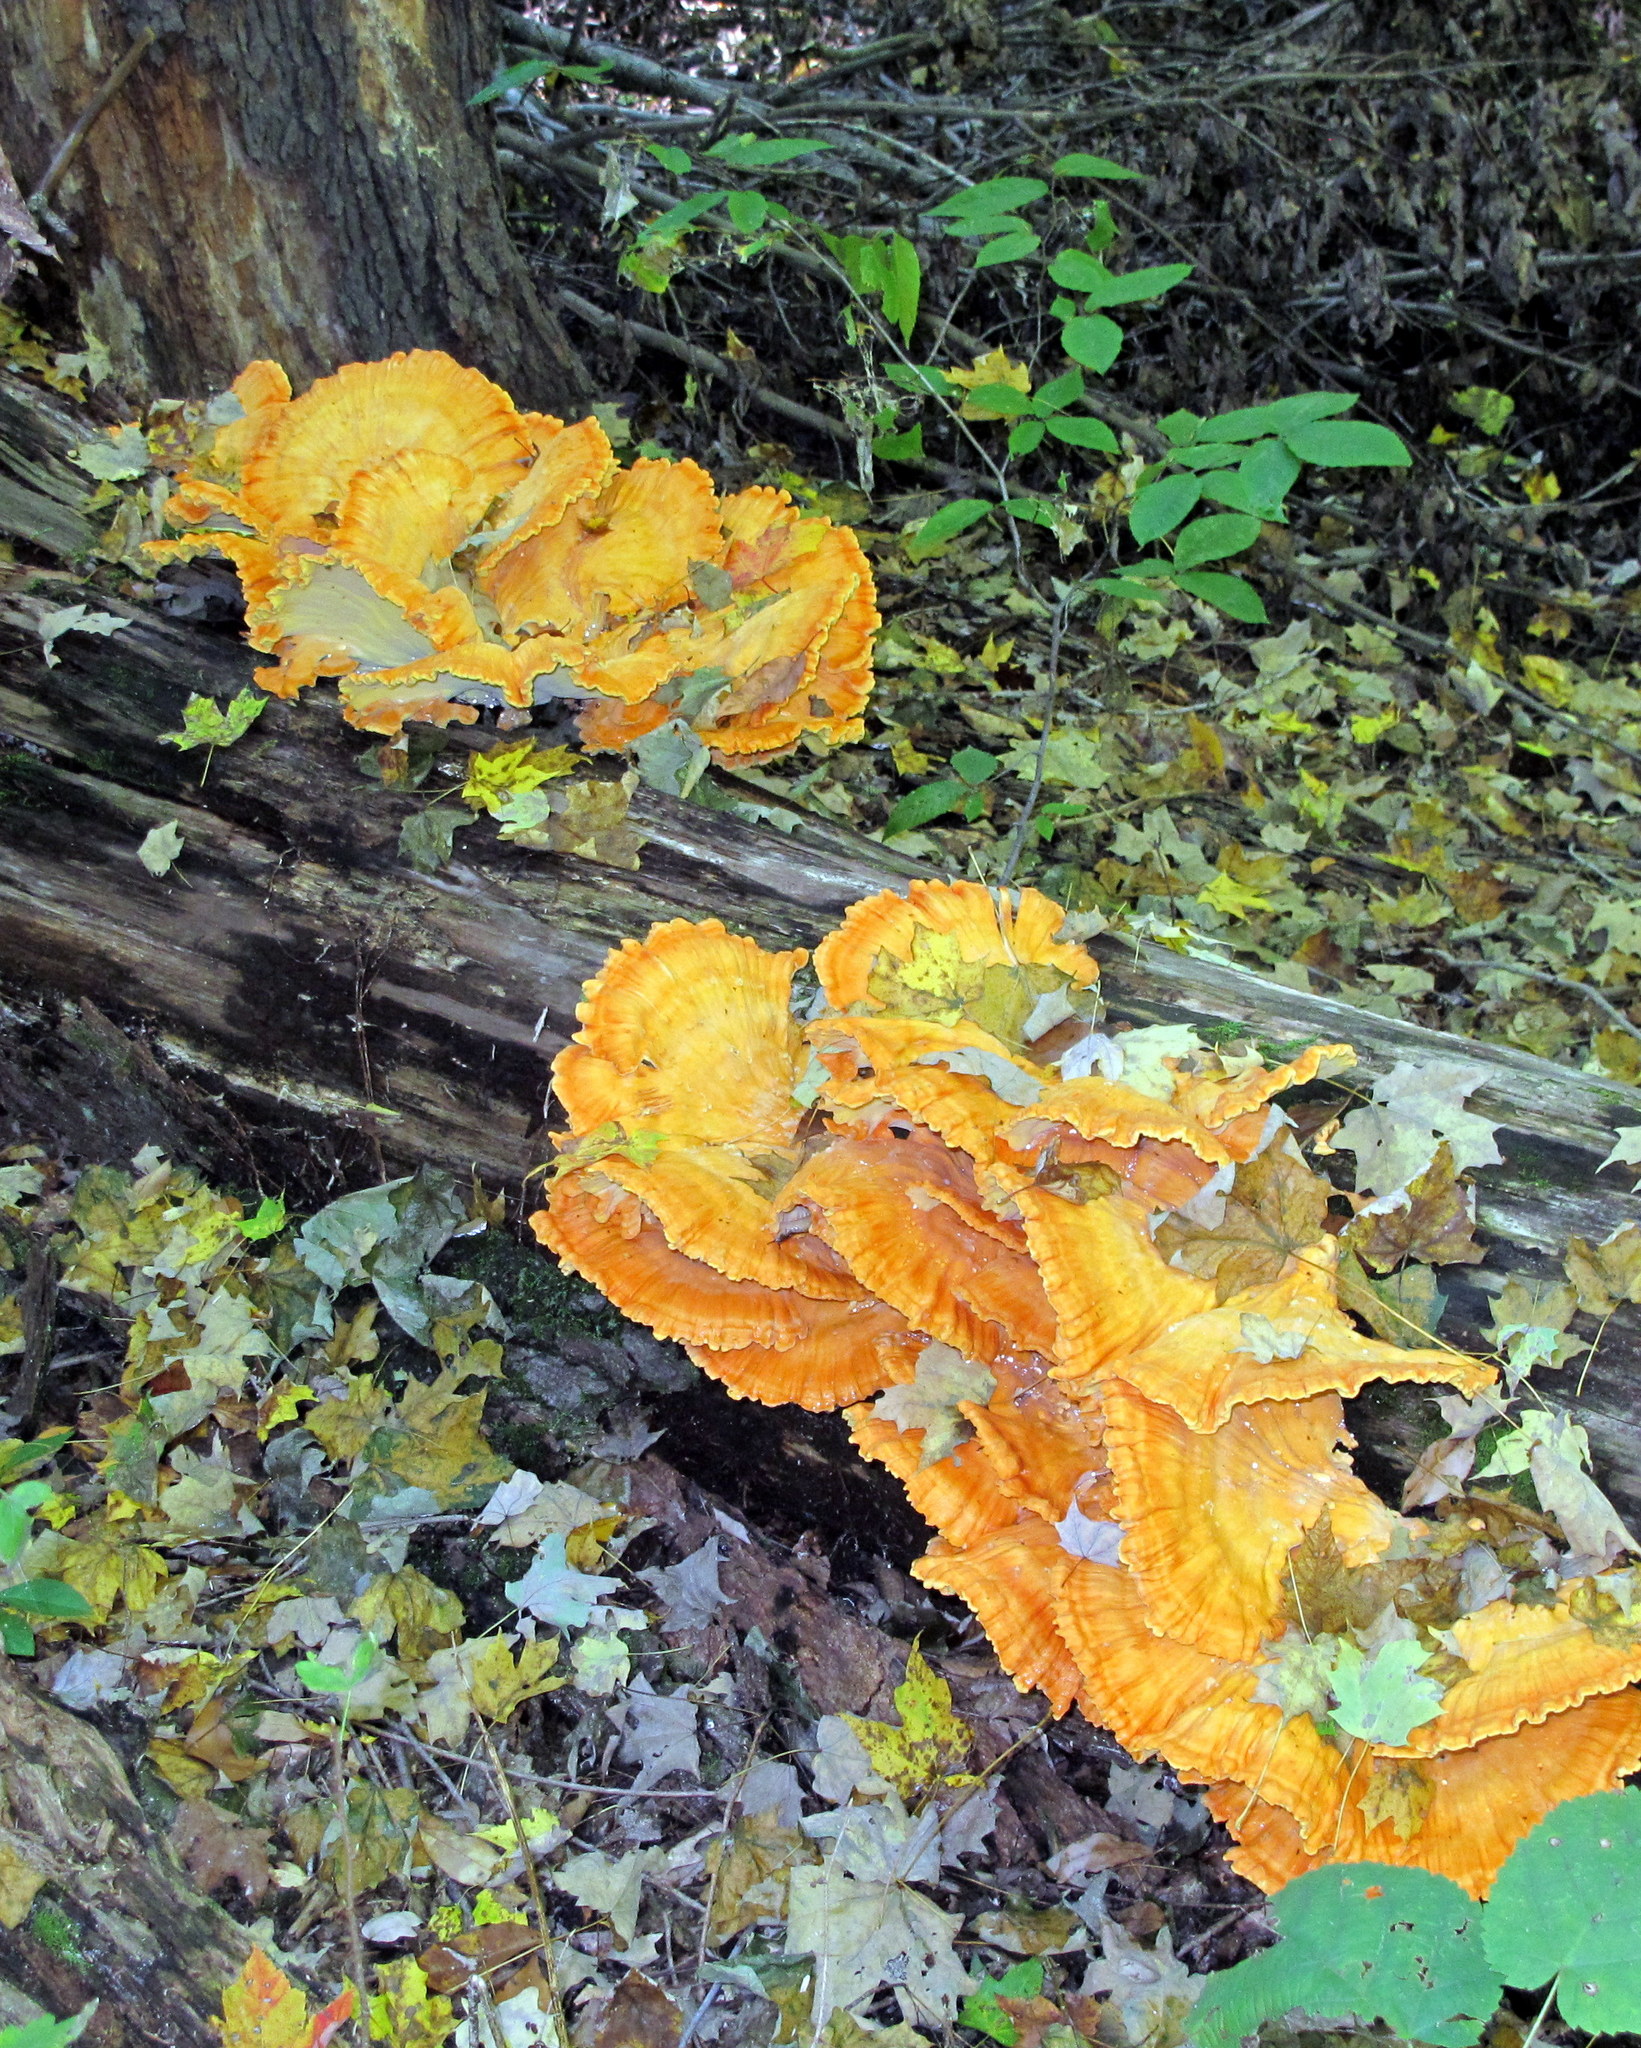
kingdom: Fungi
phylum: Basidiomycota
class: Agaricomycetes
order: Polyporales
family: Laetiporaceae
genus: Laetiporus
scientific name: Laetiporus sulphureus
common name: Chicken of the woods
